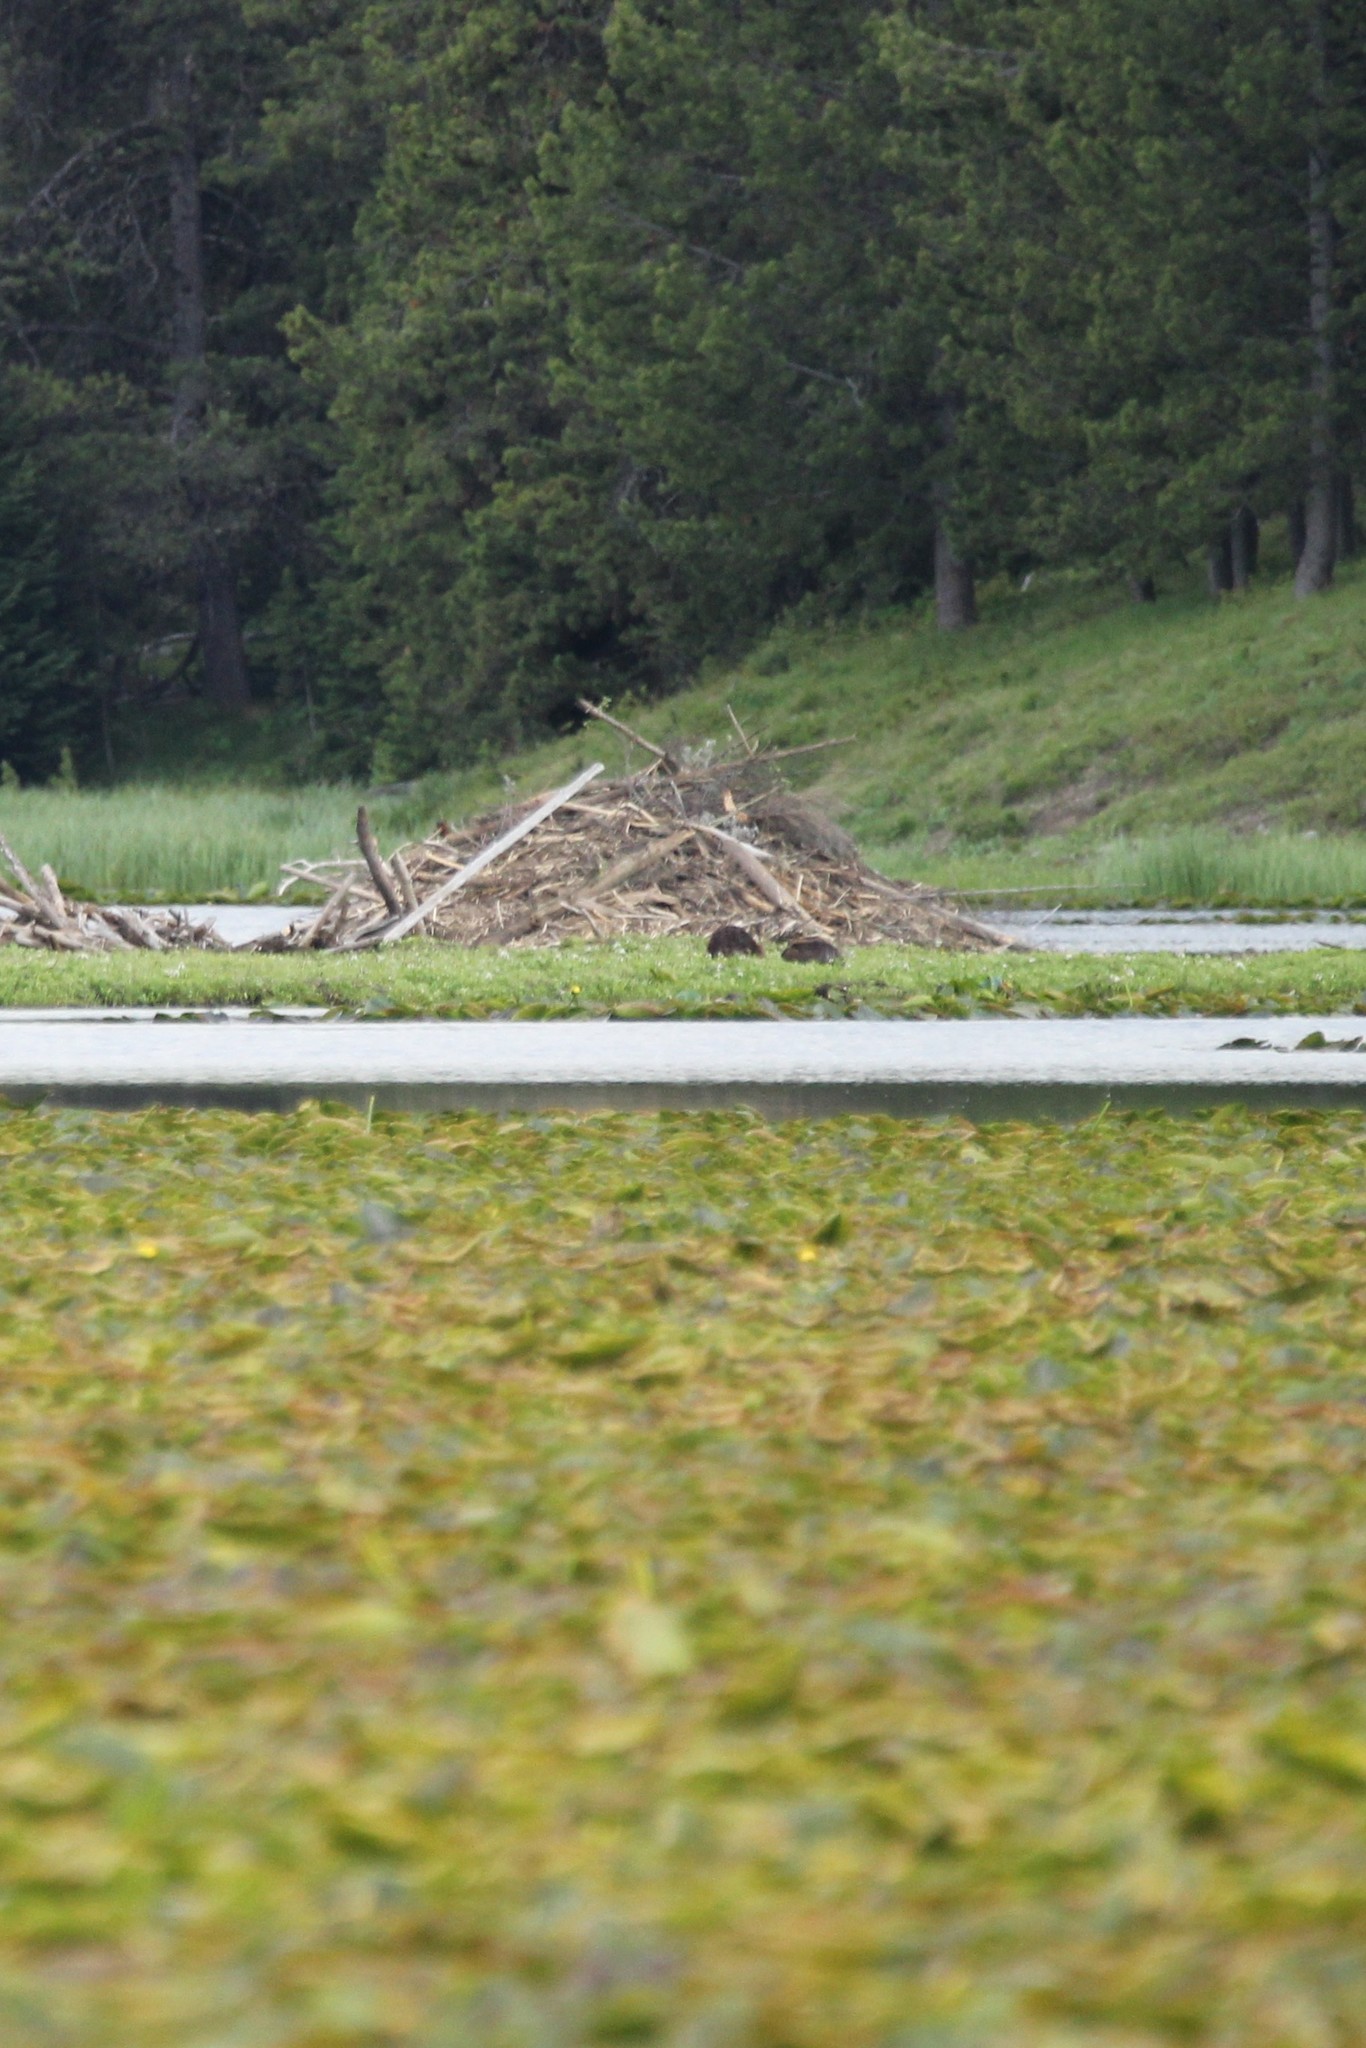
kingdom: Animalia
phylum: Chordata
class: Mammalia
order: Rodentia
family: Castoridae
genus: Castor
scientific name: Castor canadensis
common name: American beaver
